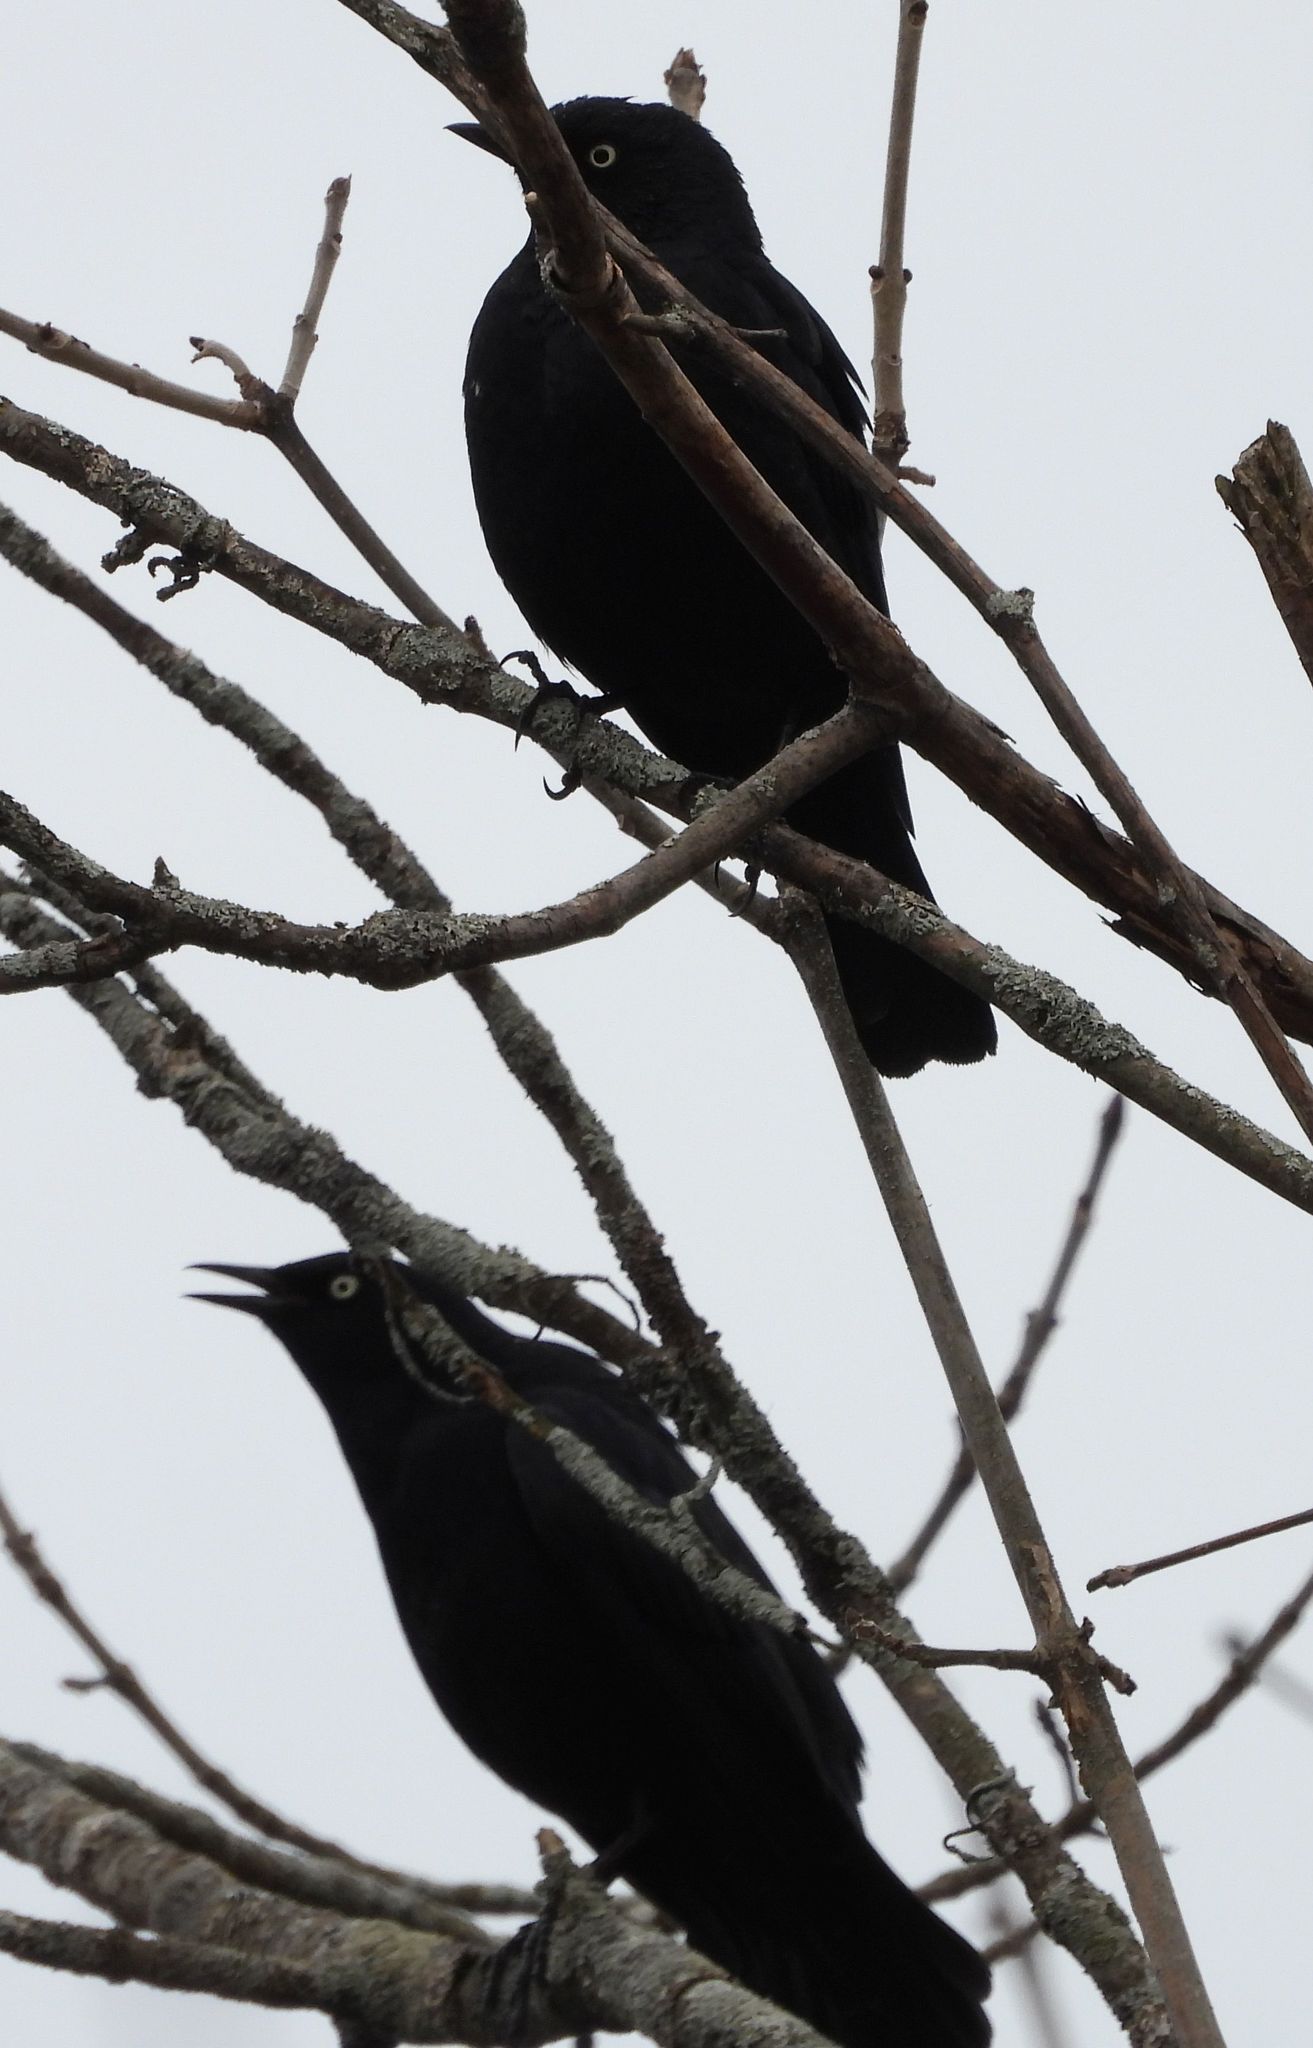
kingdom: Animalia
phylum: Chordata
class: Aves
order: Passeriformes
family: Icteridae
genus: Euphagus
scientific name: Euphagus carolinus
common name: Rusty blackbird
